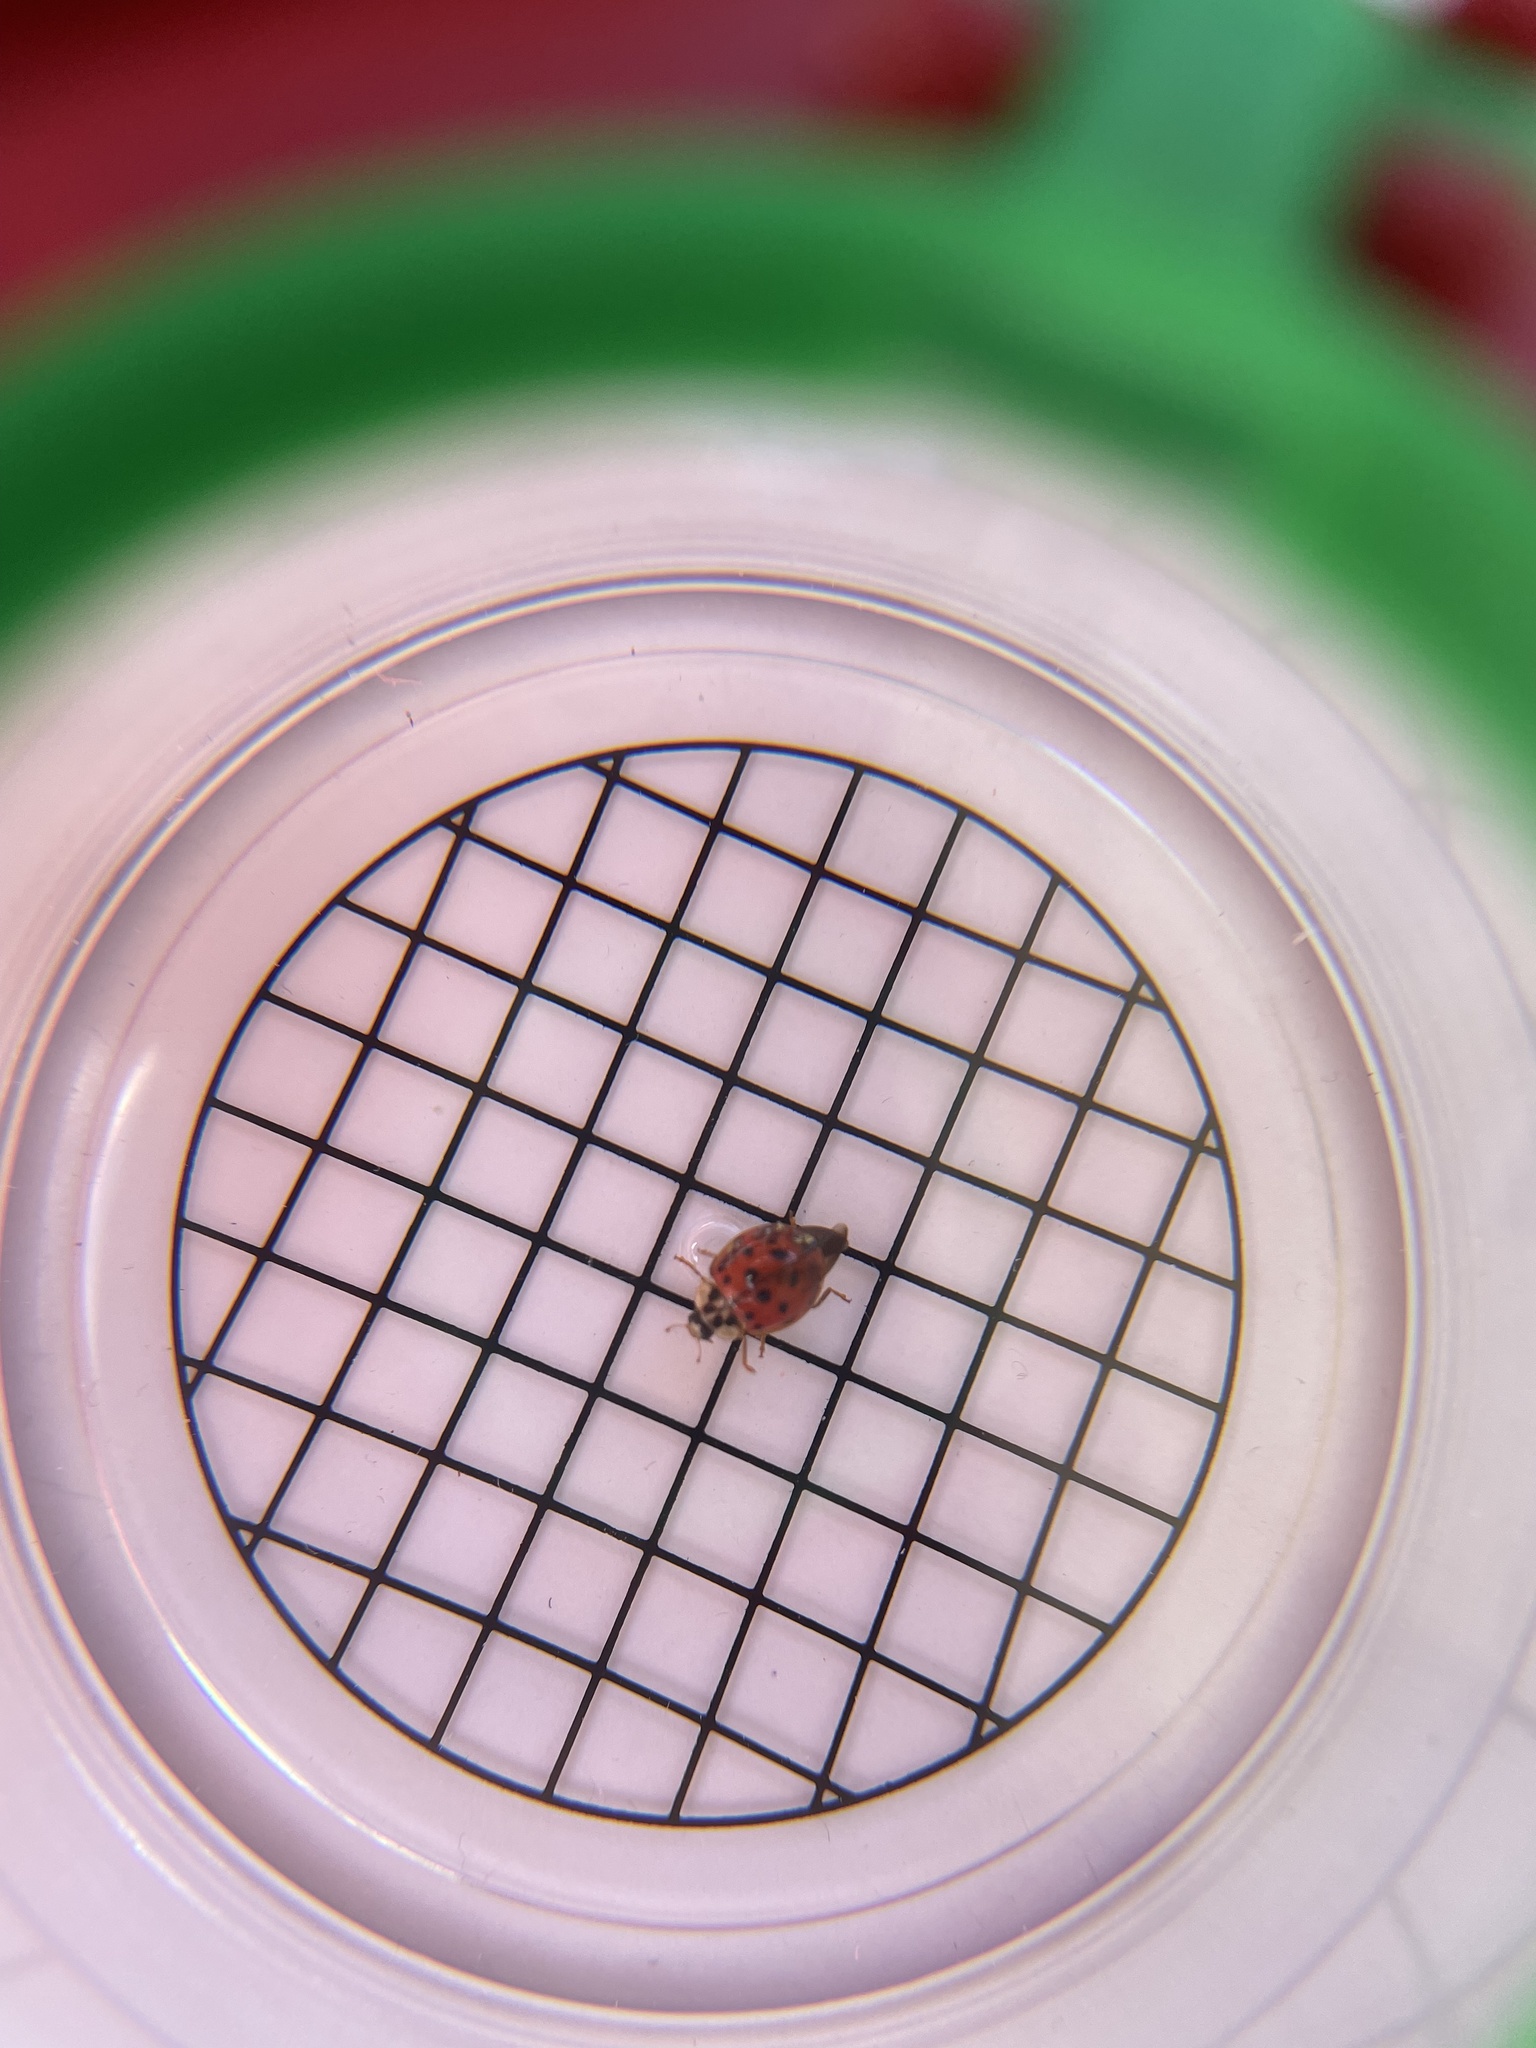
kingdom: Animalia
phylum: Arthropoda
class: Insecta
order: Coleoptera
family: Coccinellidae
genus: Harmonia
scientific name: Harmonia axyridis
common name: Harlequin ladybird
